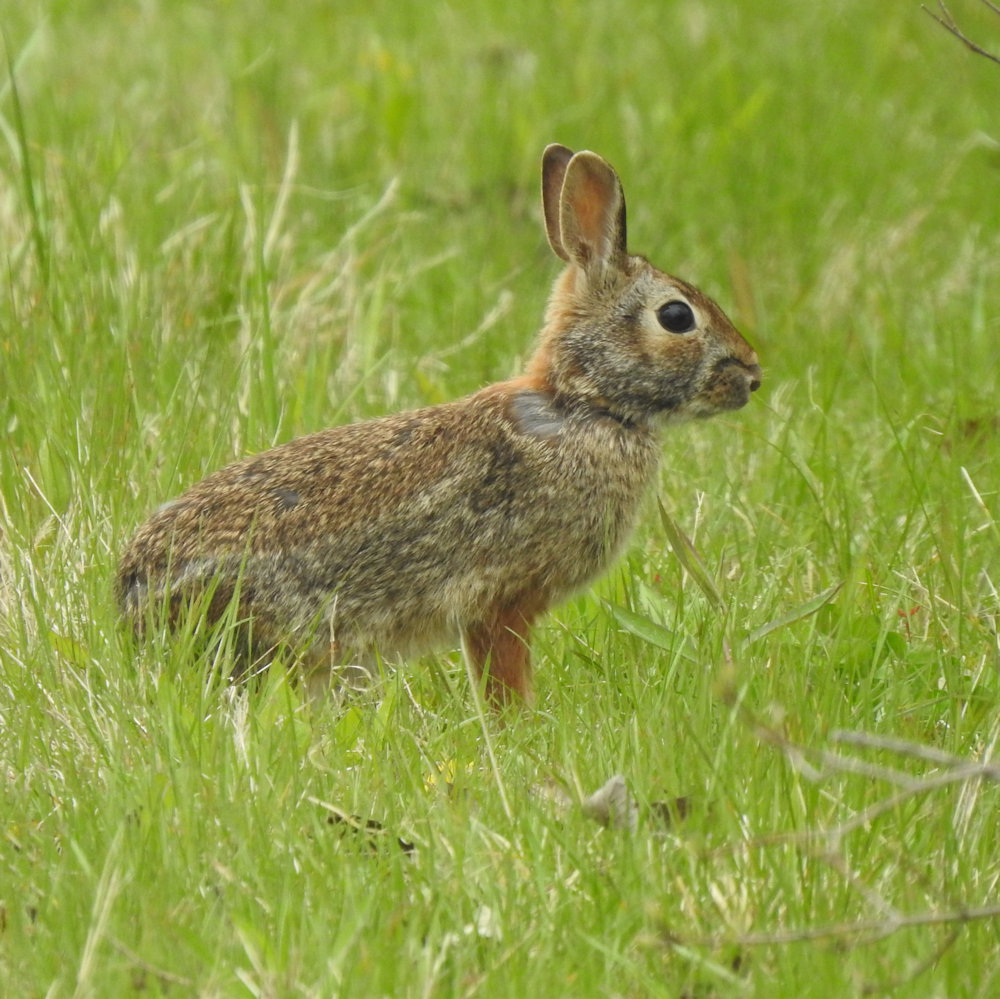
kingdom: Animalia
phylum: Chordata
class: Mammalia
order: Lagomorpha
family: Leporidae
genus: Sylvilagus
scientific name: Sylvilagus floridanus
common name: Eastern cottontail
